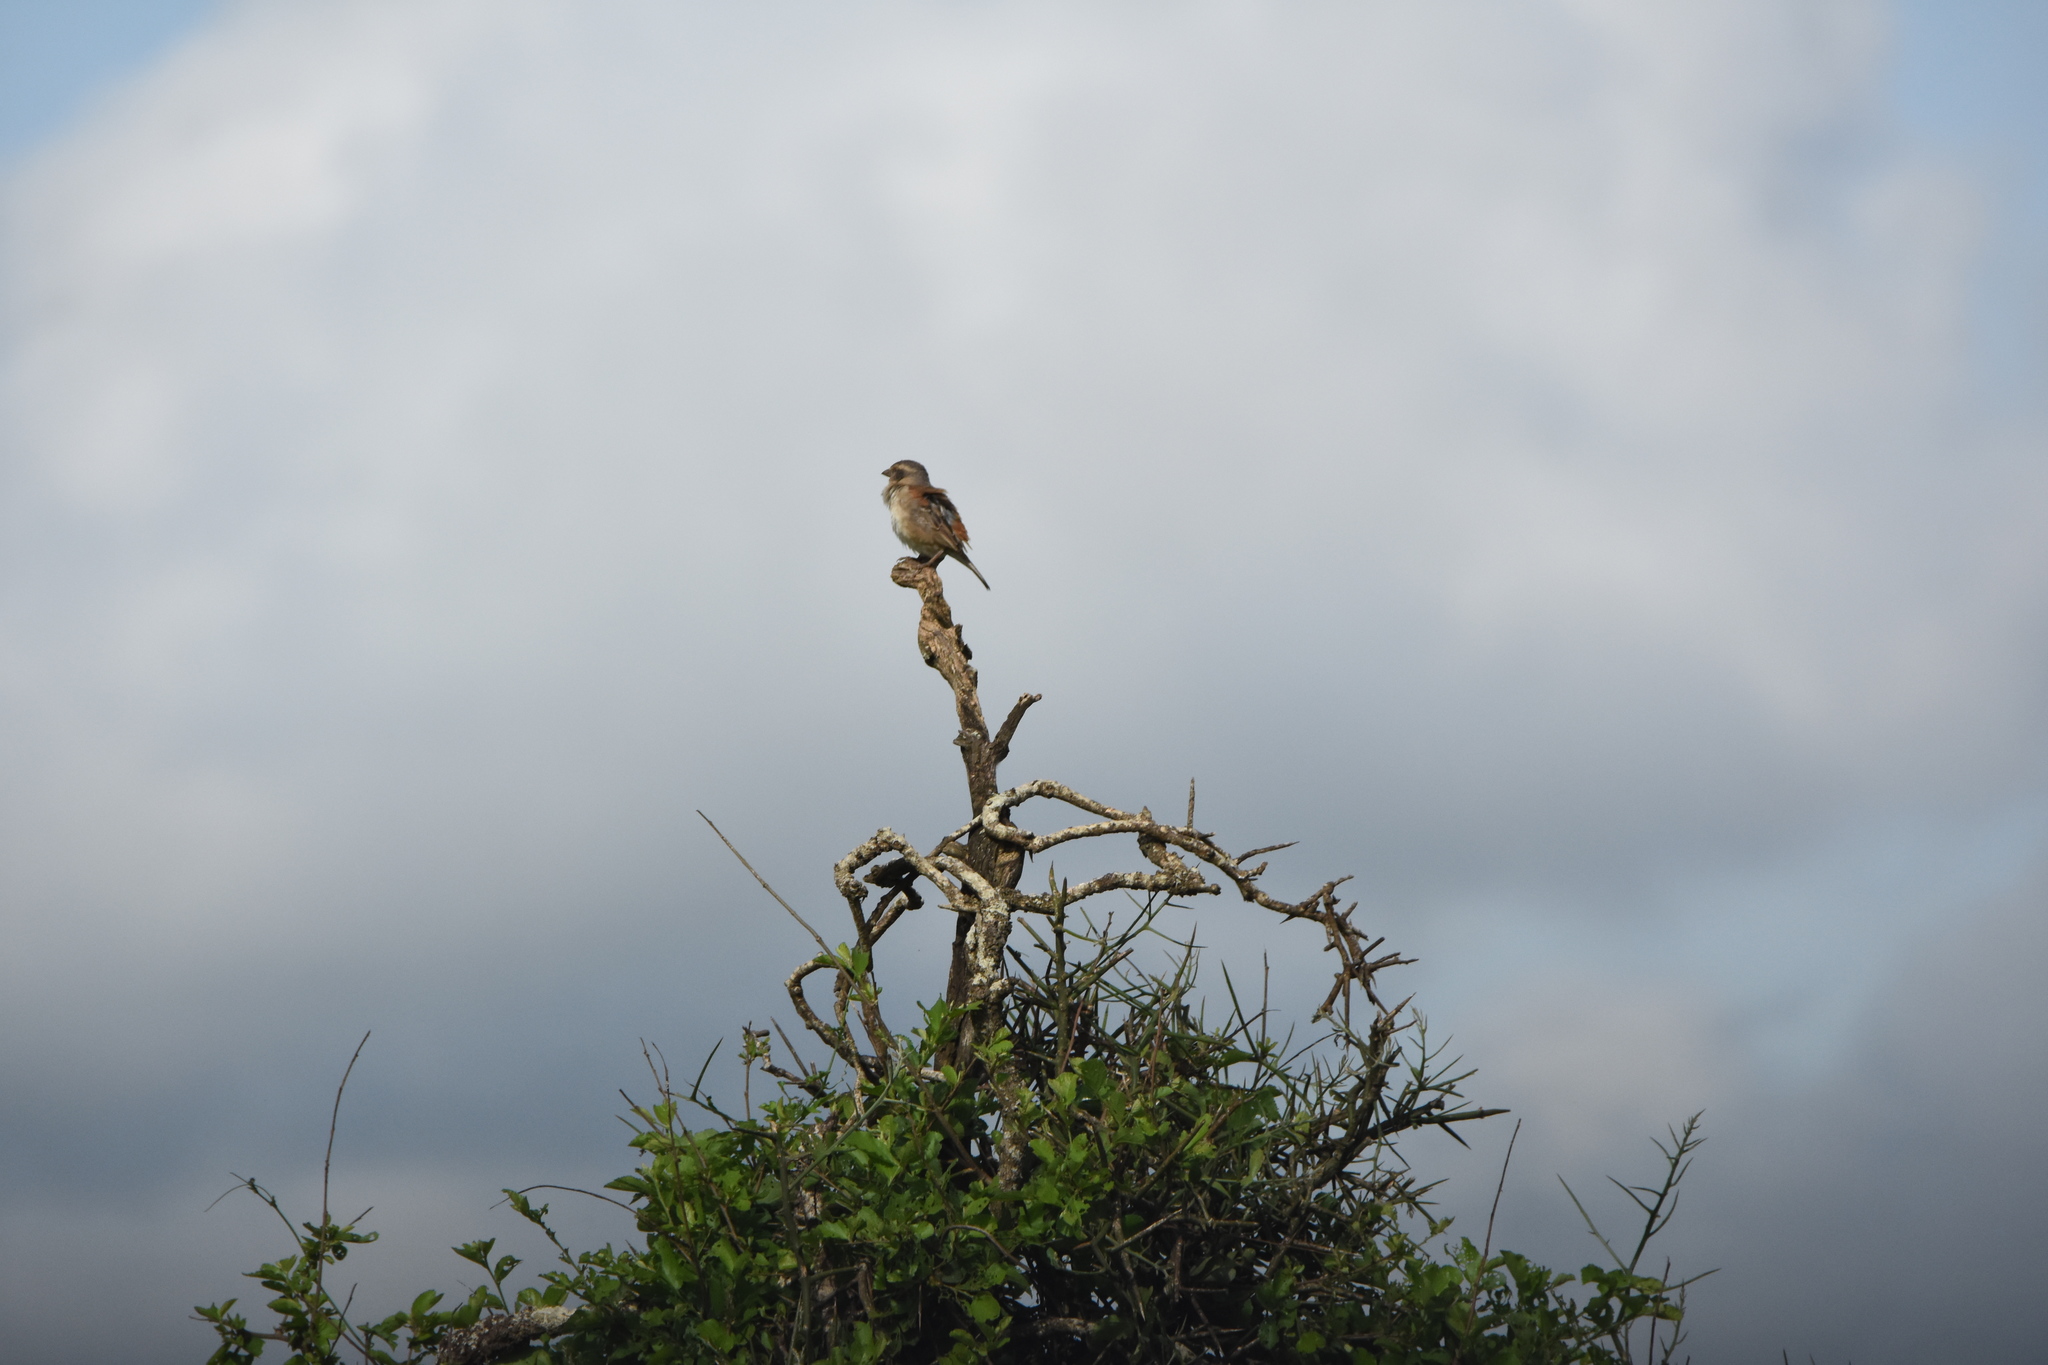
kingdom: Animalia
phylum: Chordata
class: Aves
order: Passeriformes
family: Passeridae
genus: Passer
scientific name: Passer rufocinctus
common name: Kenya sparrow
